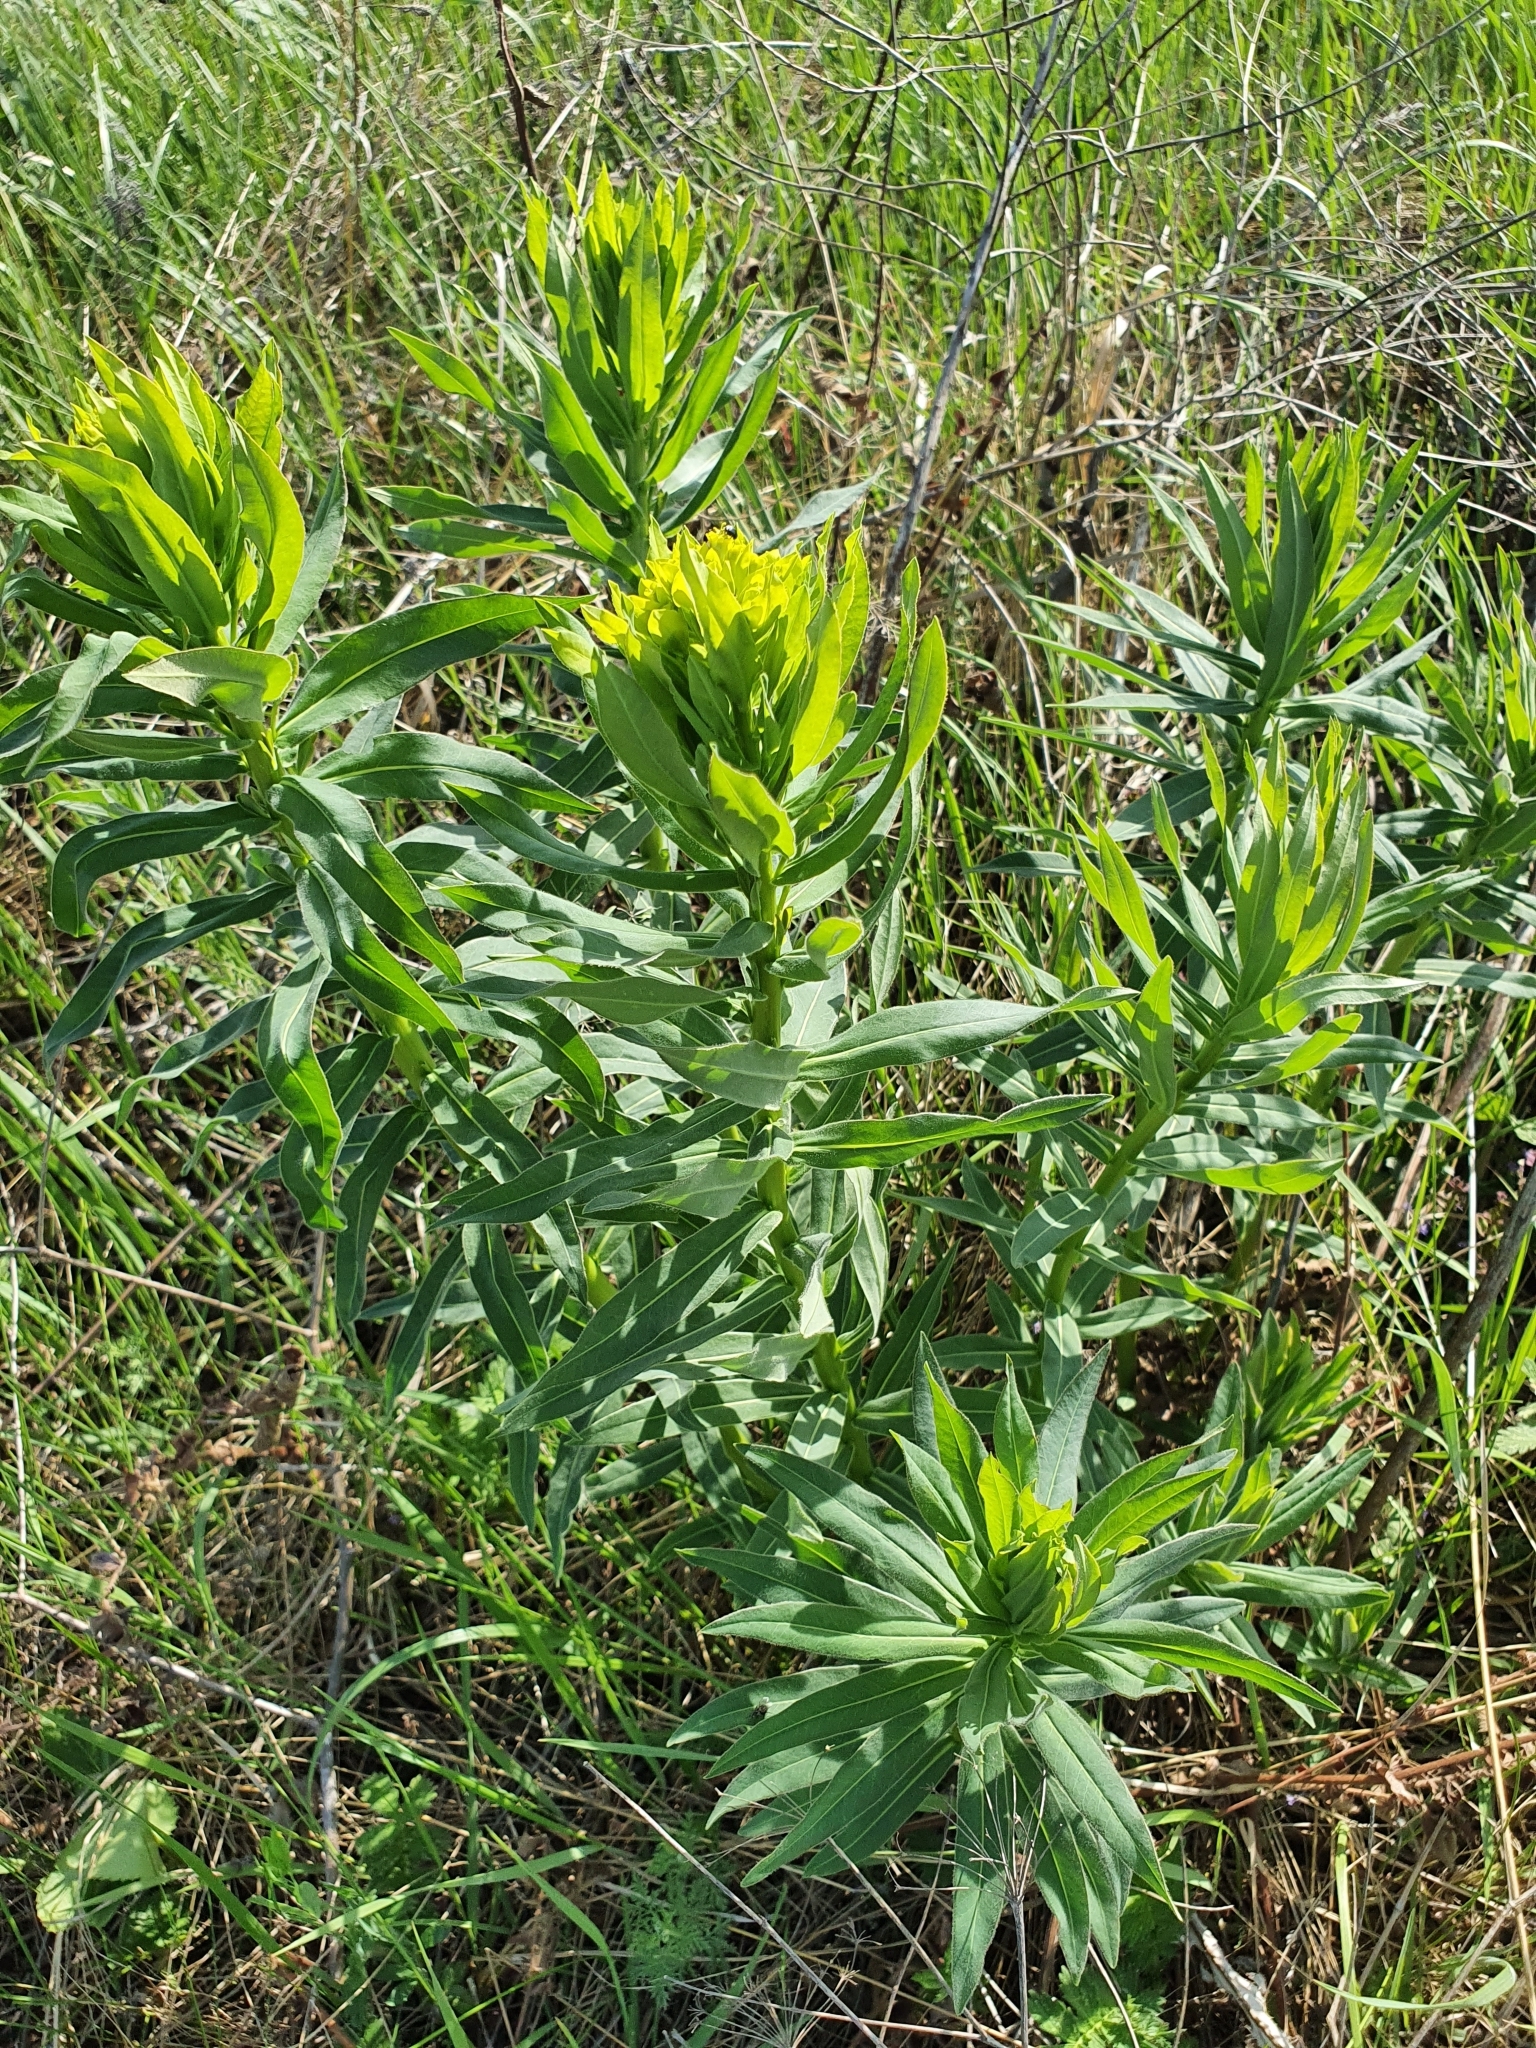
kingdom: Plantae
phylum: Tracheophyta
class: Magnoliopsida
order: Malpighiales
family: Euphorbiaceae
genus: Euphorbia
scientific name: Euphorbia semivillosa
